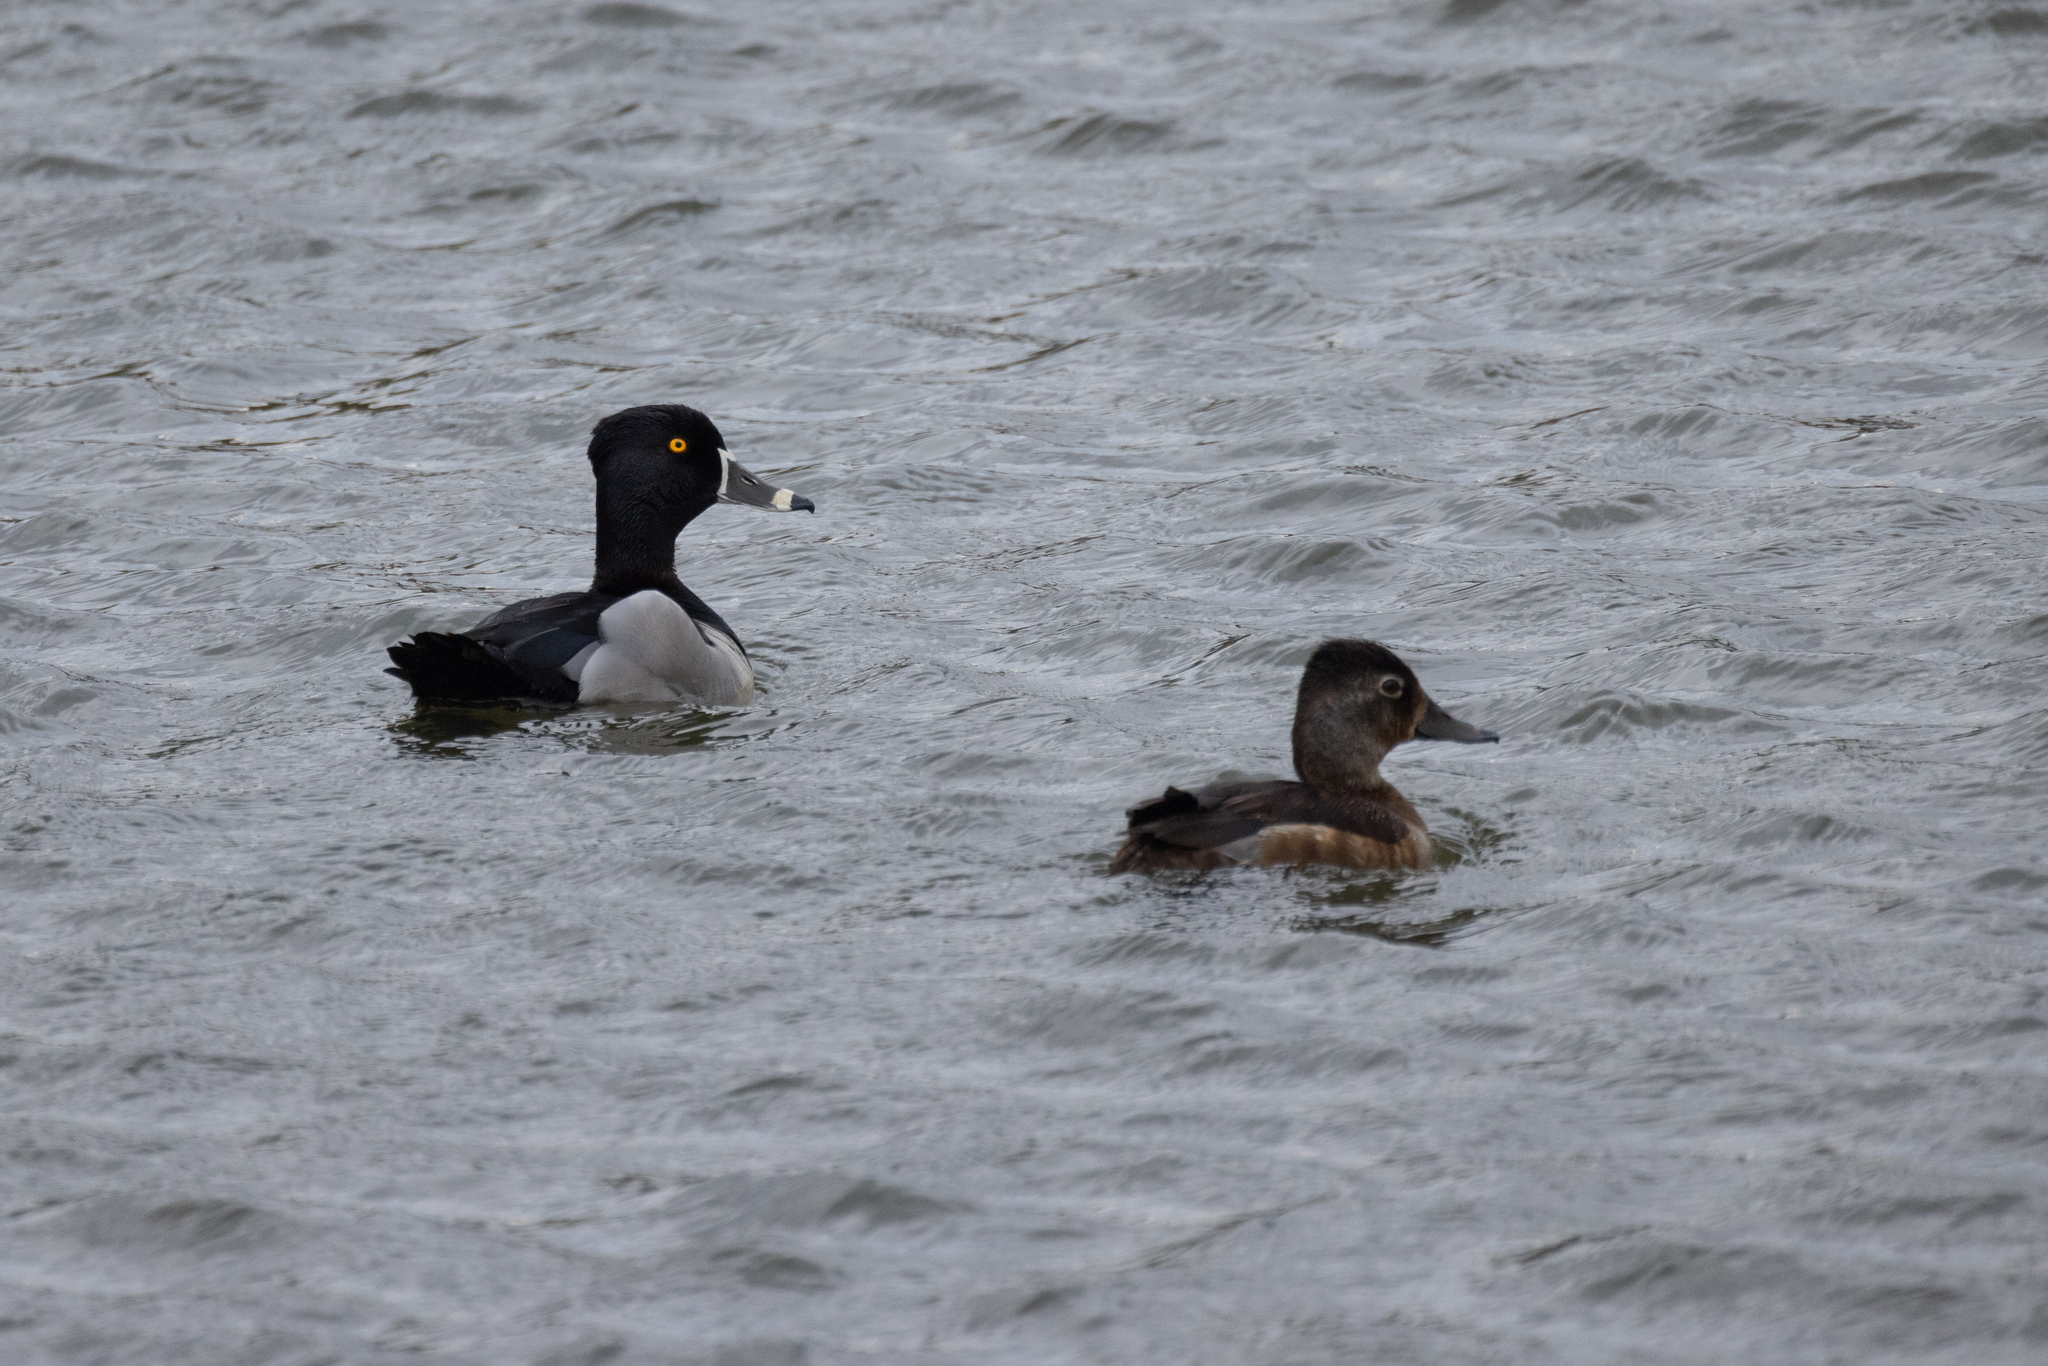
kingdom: Animalia
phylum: Chordata
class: Aves
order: Anseriformes
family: Anatidae
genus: Aythya
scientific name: Aythya collaris
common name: Ring-necked duck
